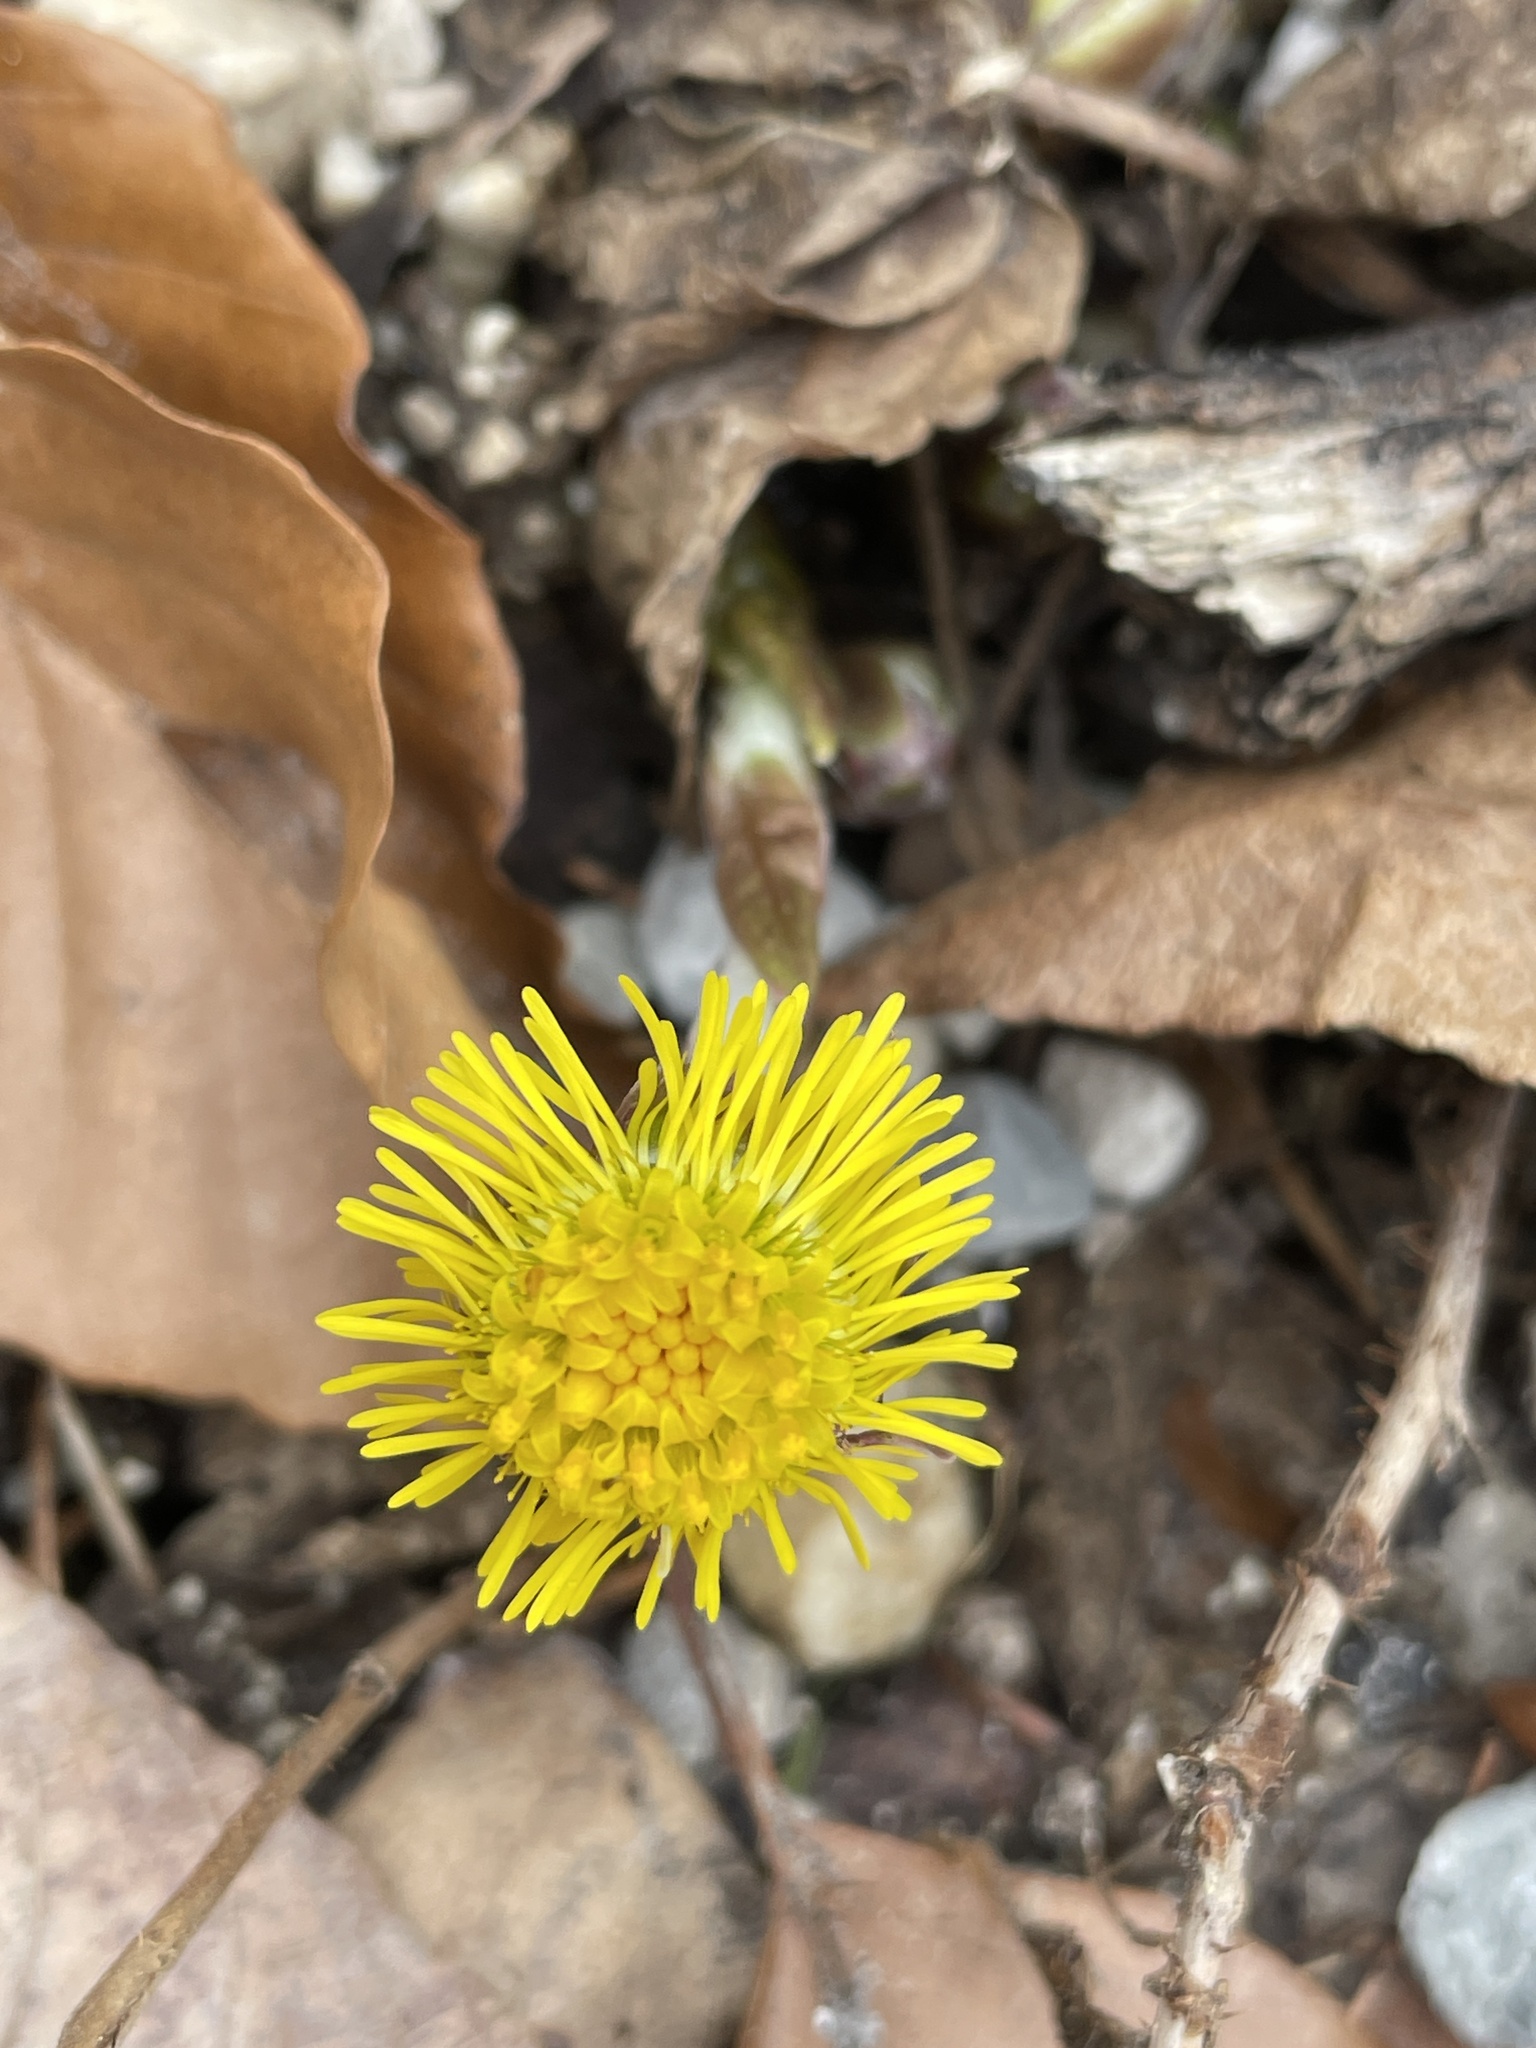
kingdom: Plantae
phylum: Tracheophyta
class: Magnoliopsida
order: Asterales
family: Asteraceae
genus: Tussilago
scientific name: Tussilago farfara
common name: Coltsfoot
